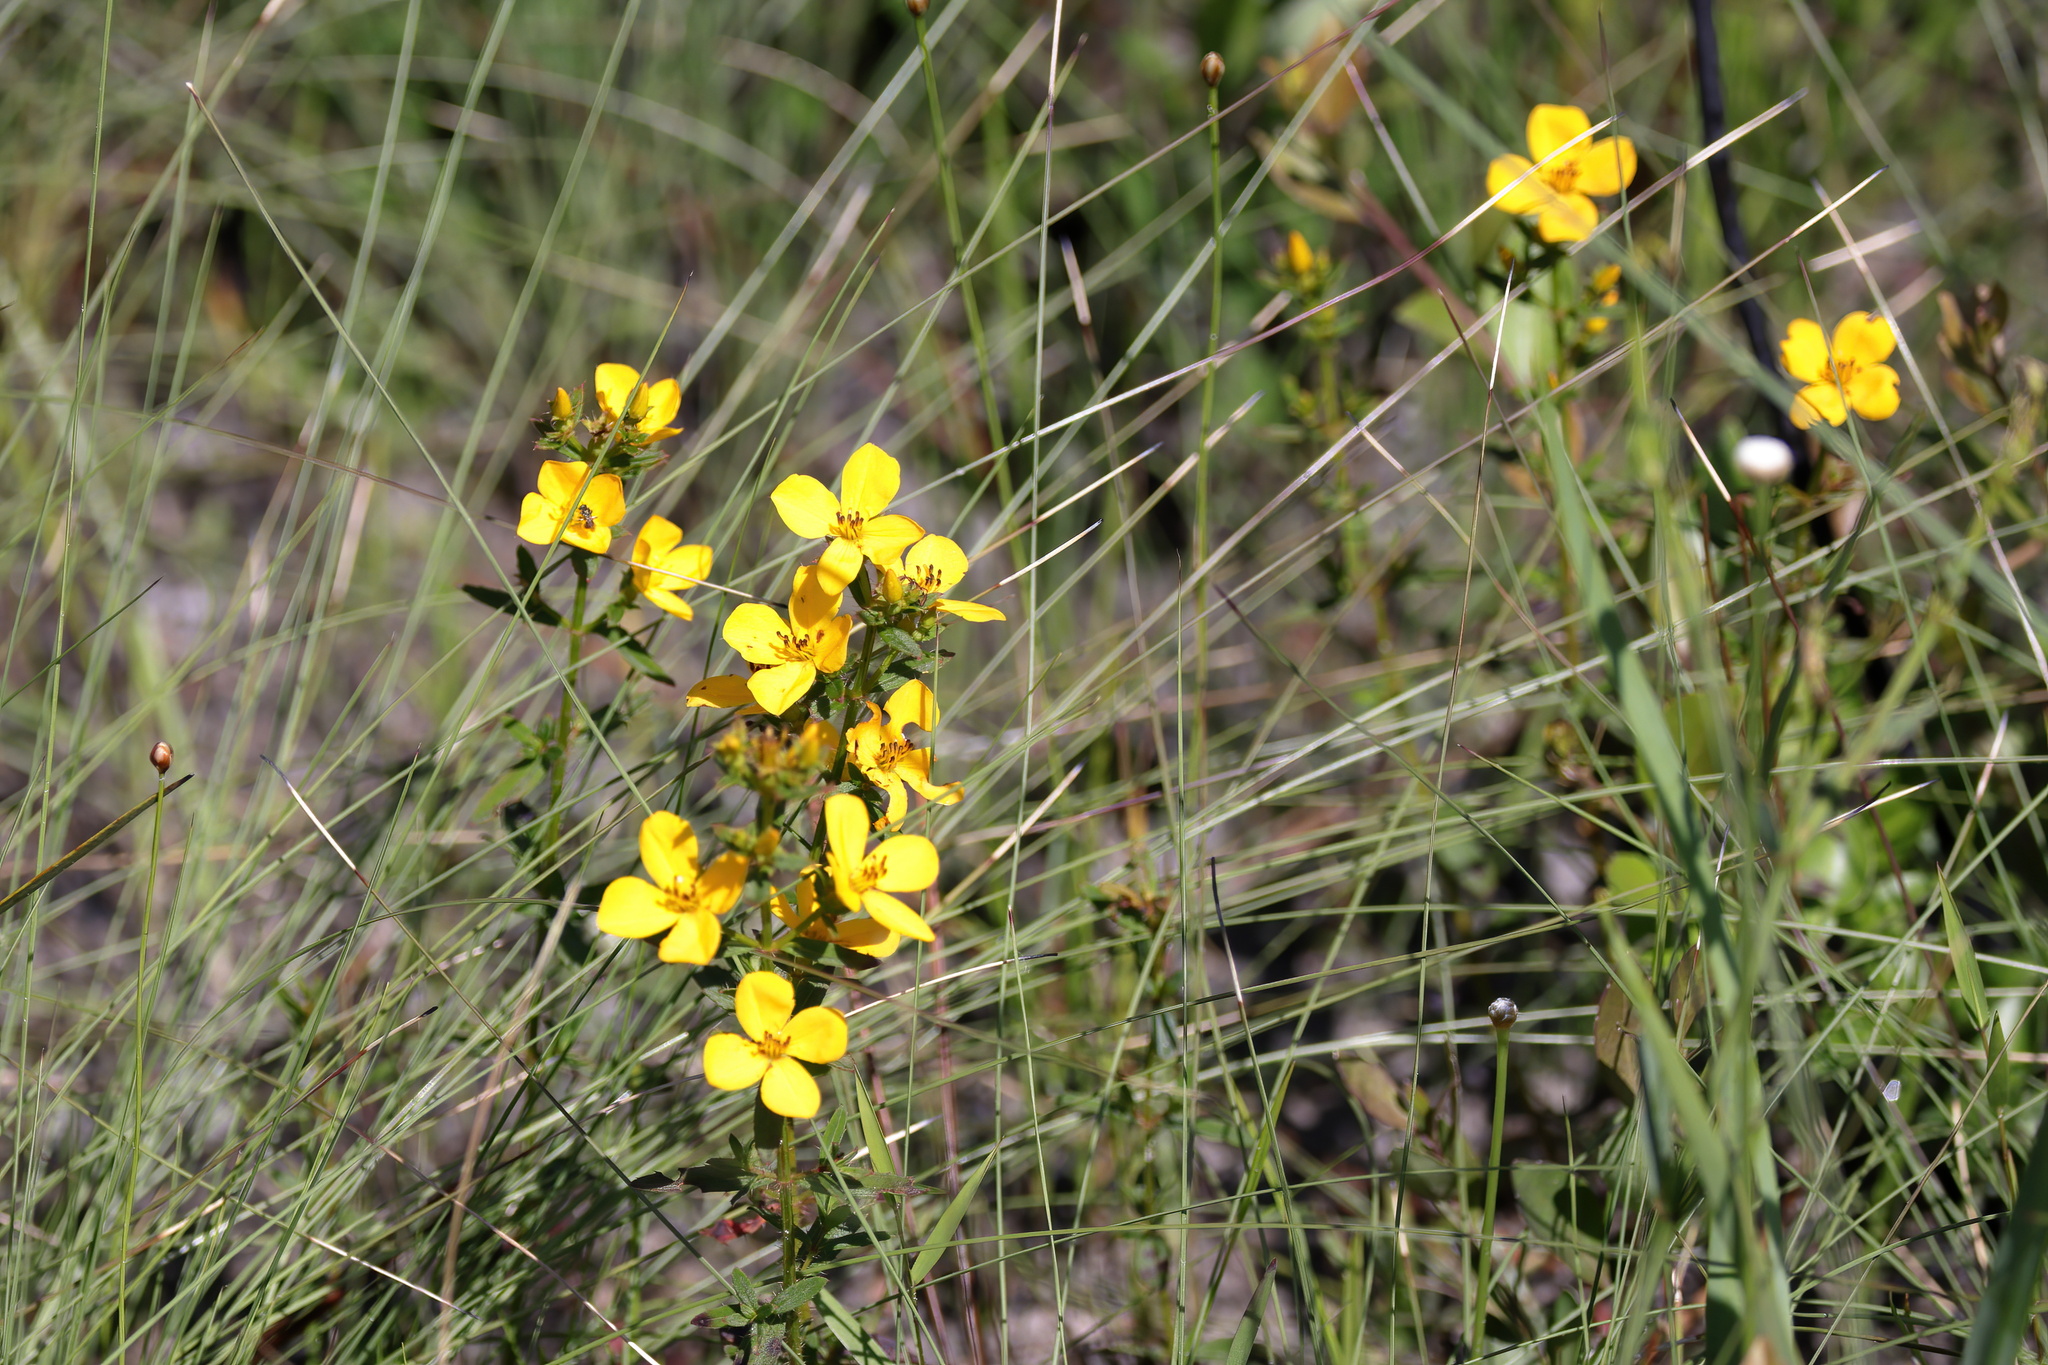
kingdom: Plantae
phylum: Tracheophyta
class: Magnoliopsida
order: Myrtales
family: Melastomataceae
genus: Rhexia
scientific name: Rhexia lutea
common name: Golden meadow-beauty
